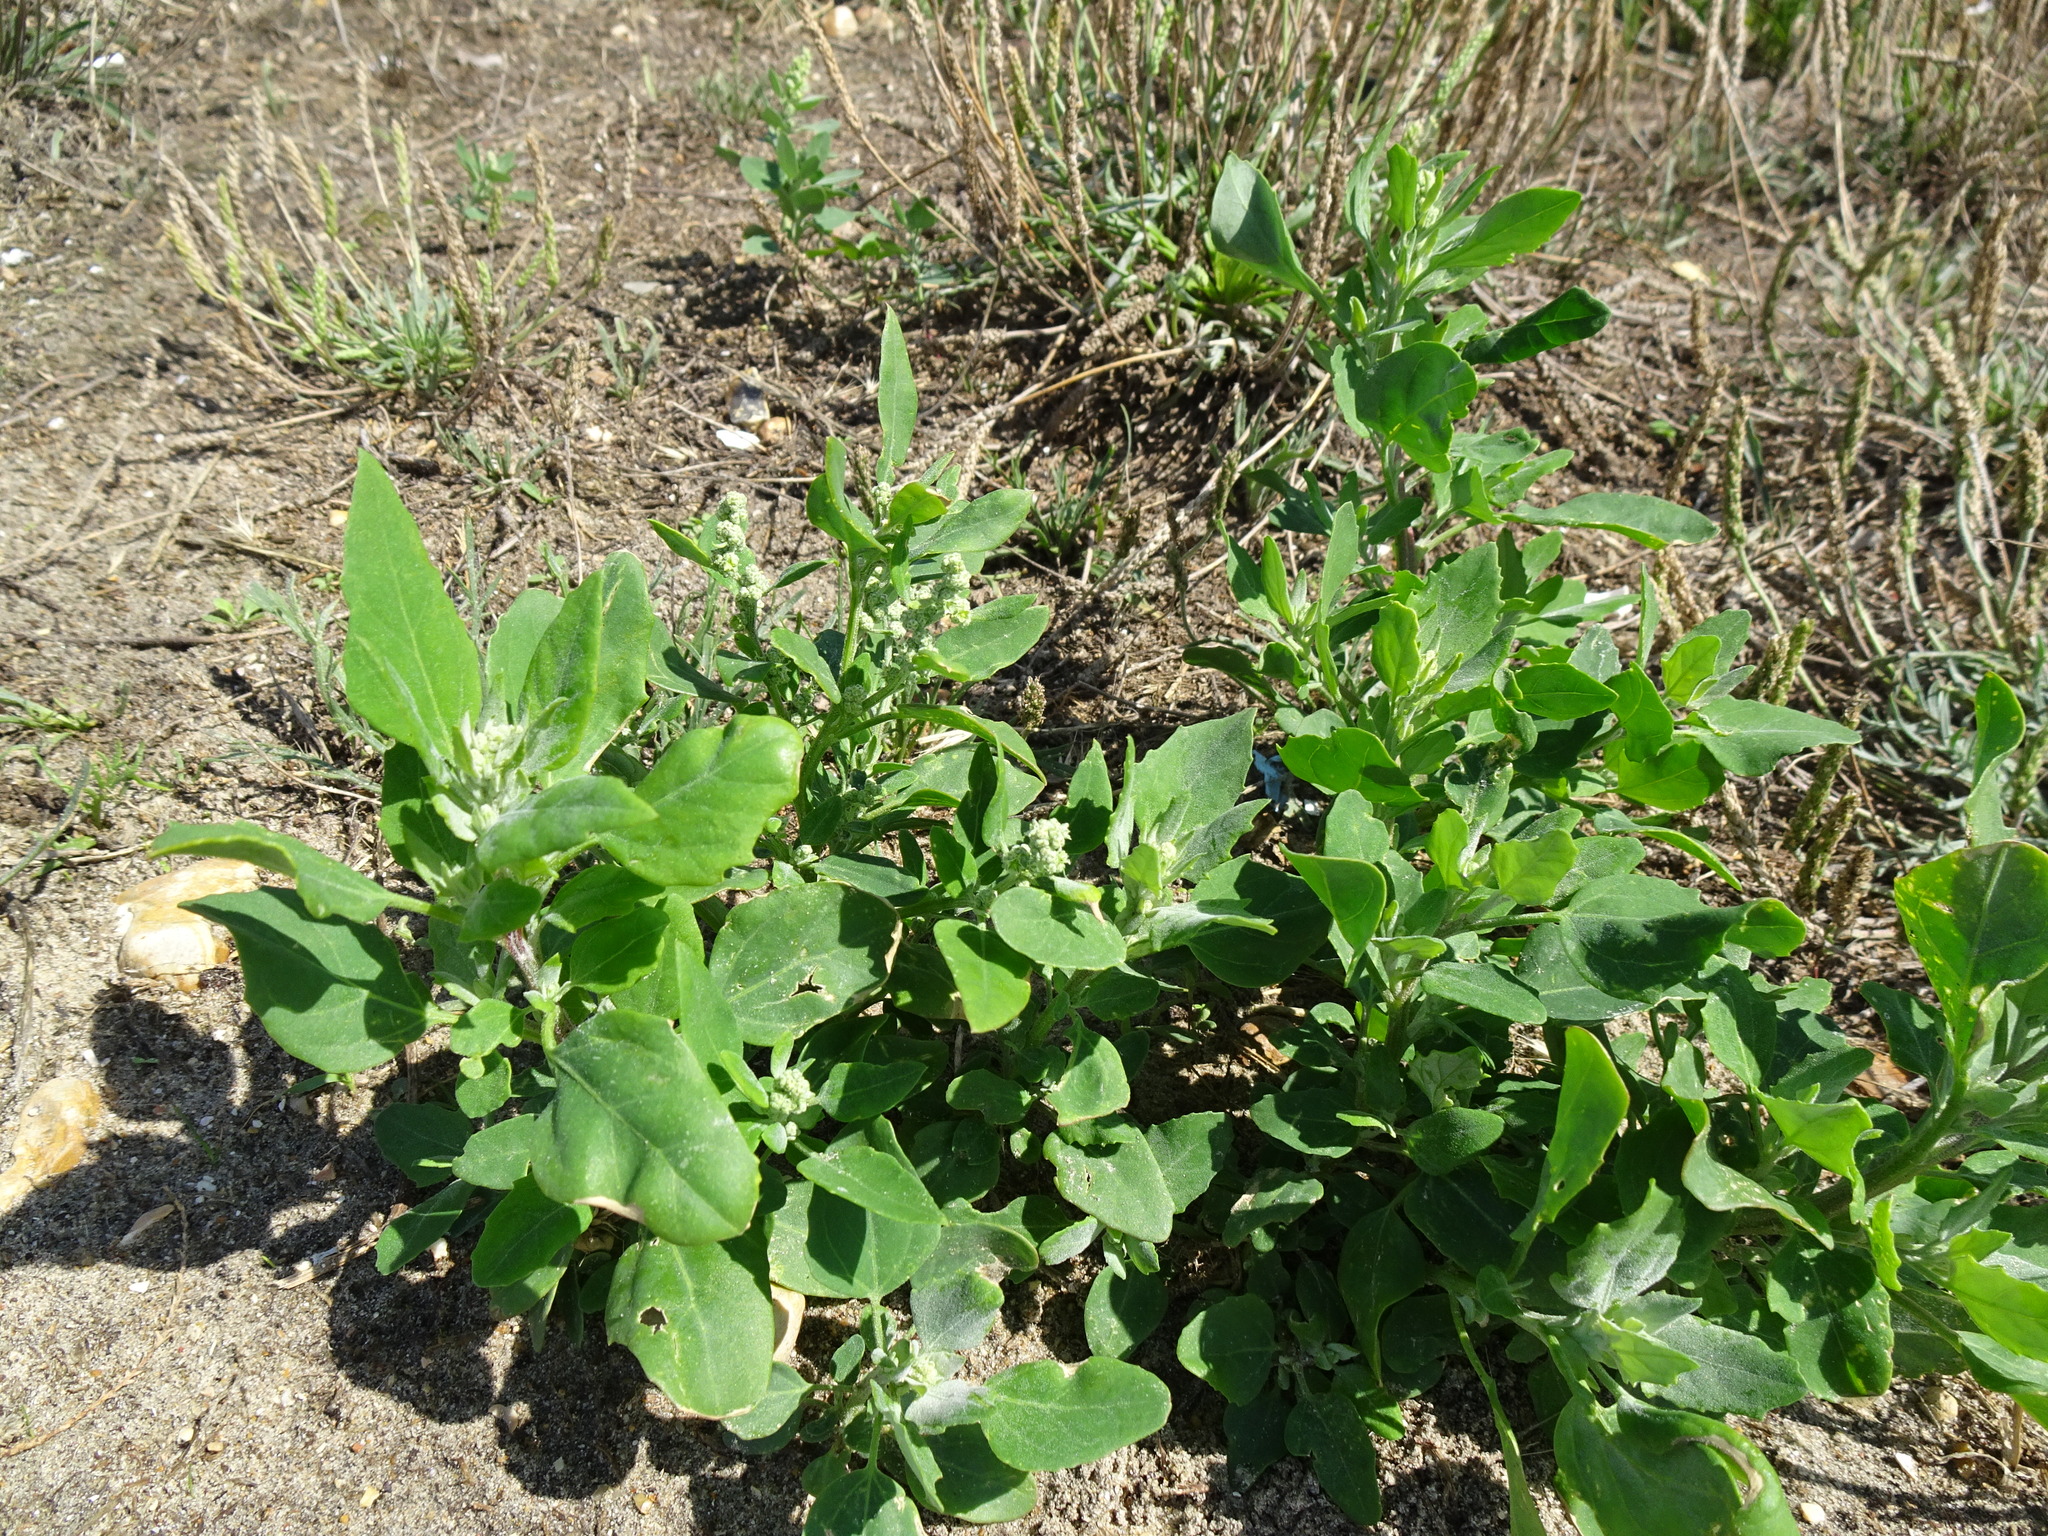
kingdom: Plantae
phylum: Tracheophyta
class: Magnoliopsida
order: Caryophyllales
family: Amaranthaceae
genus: Chenopodium
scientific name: Chenopodium album
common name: Fat-hen
